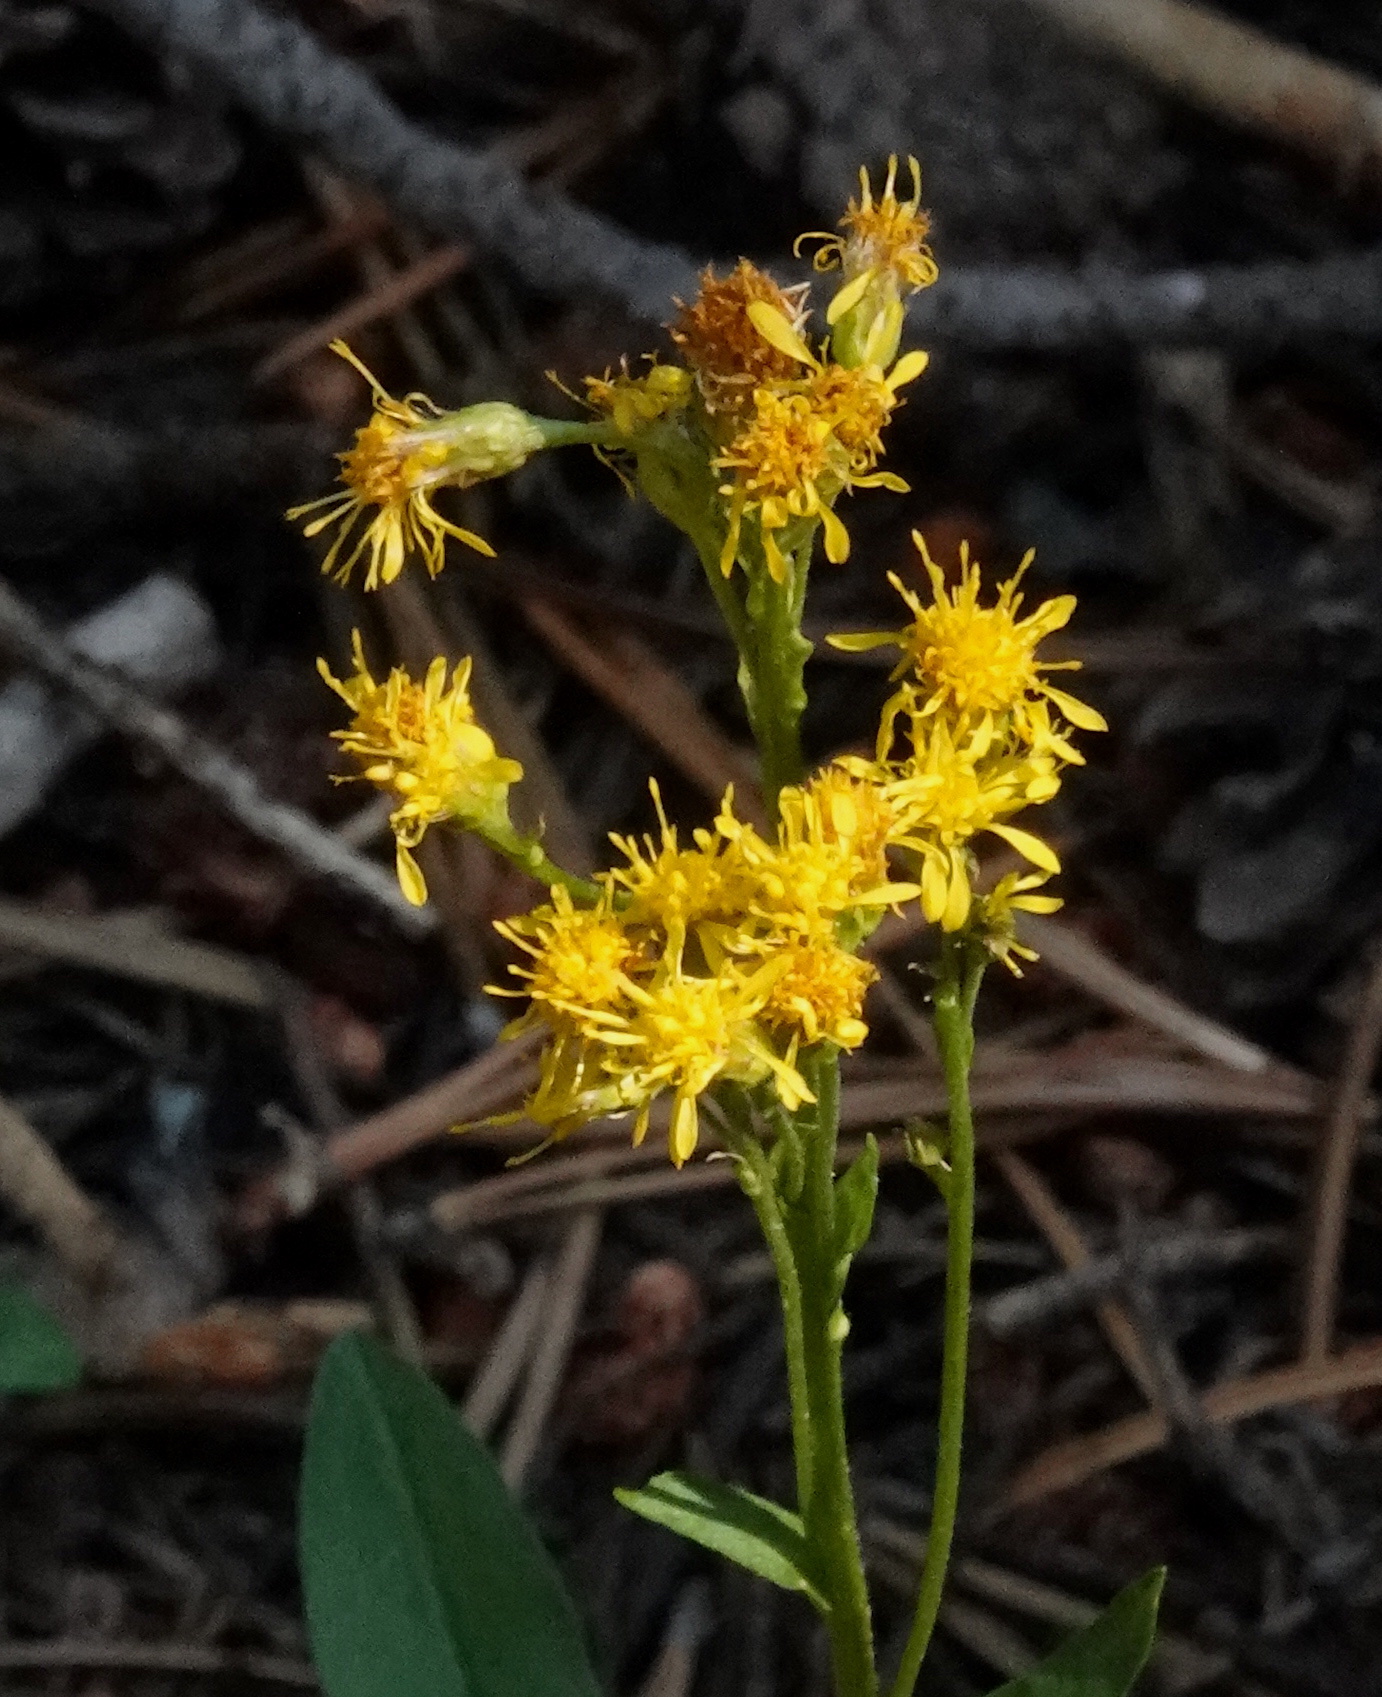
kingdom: Plantae
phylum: Tracheophyta
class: Magnoliopsida
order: Asterales
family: Asteraceae
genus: Solidago
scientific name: Solidago multiradiata
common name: Northern goldenrod
